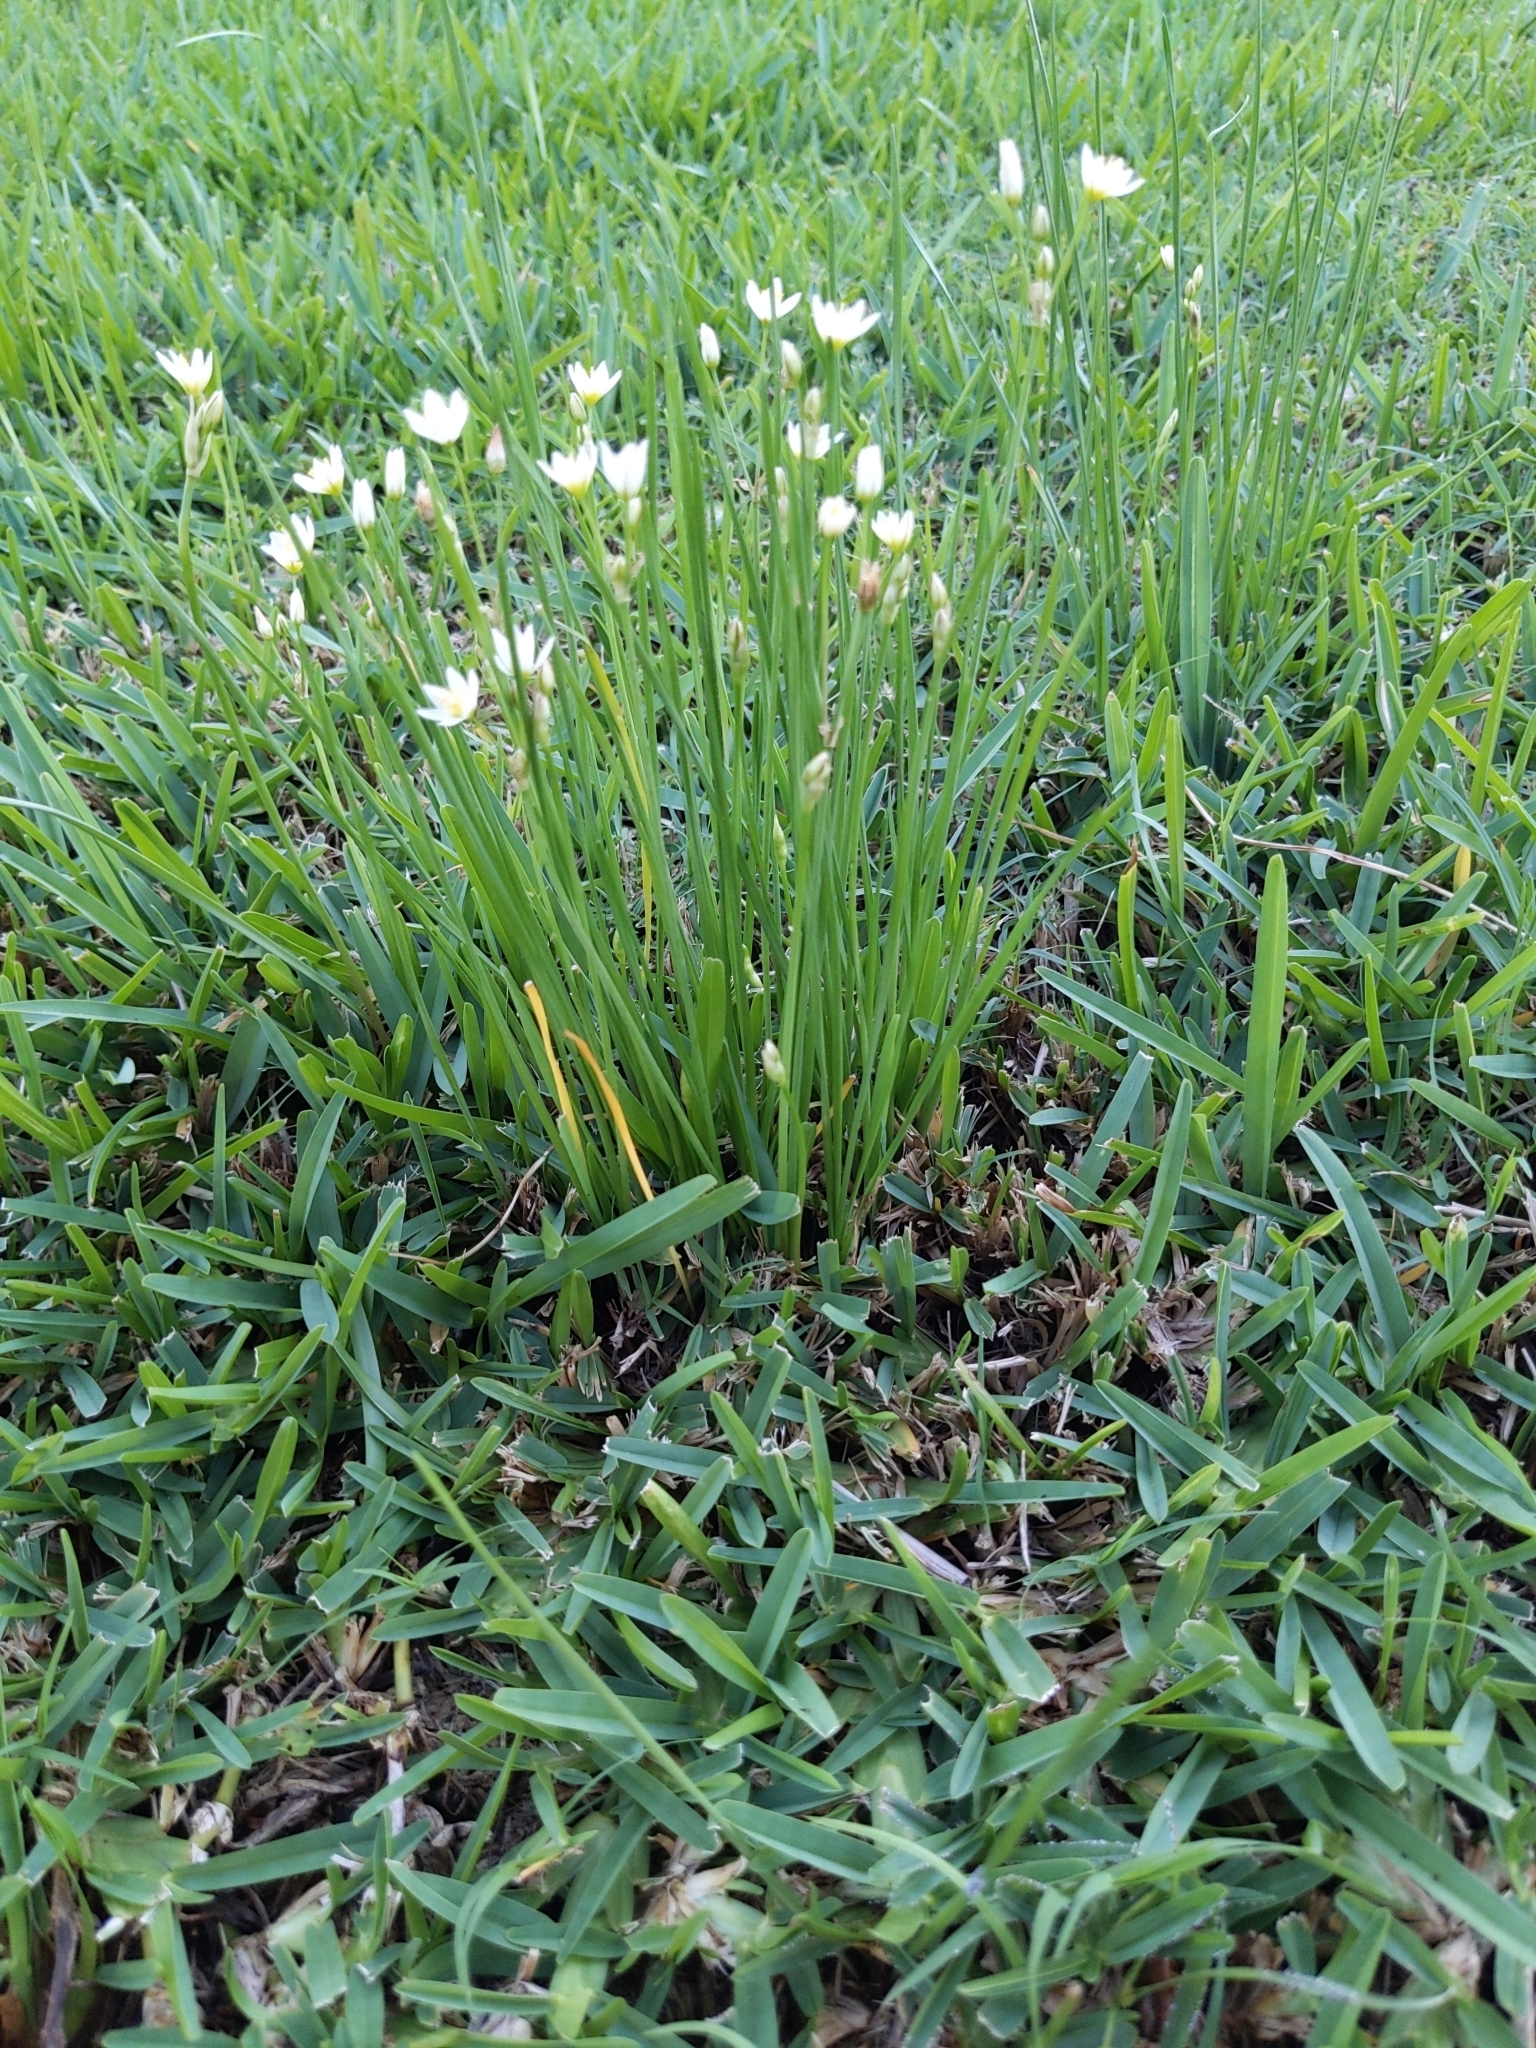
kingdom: Plantae
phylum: Tracheophyta
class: Liliopsida
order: Asparagales
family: Amaryllidaceae
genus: Nothoscordum
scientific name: Nothoscordum bivalve
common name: Crow-poison
